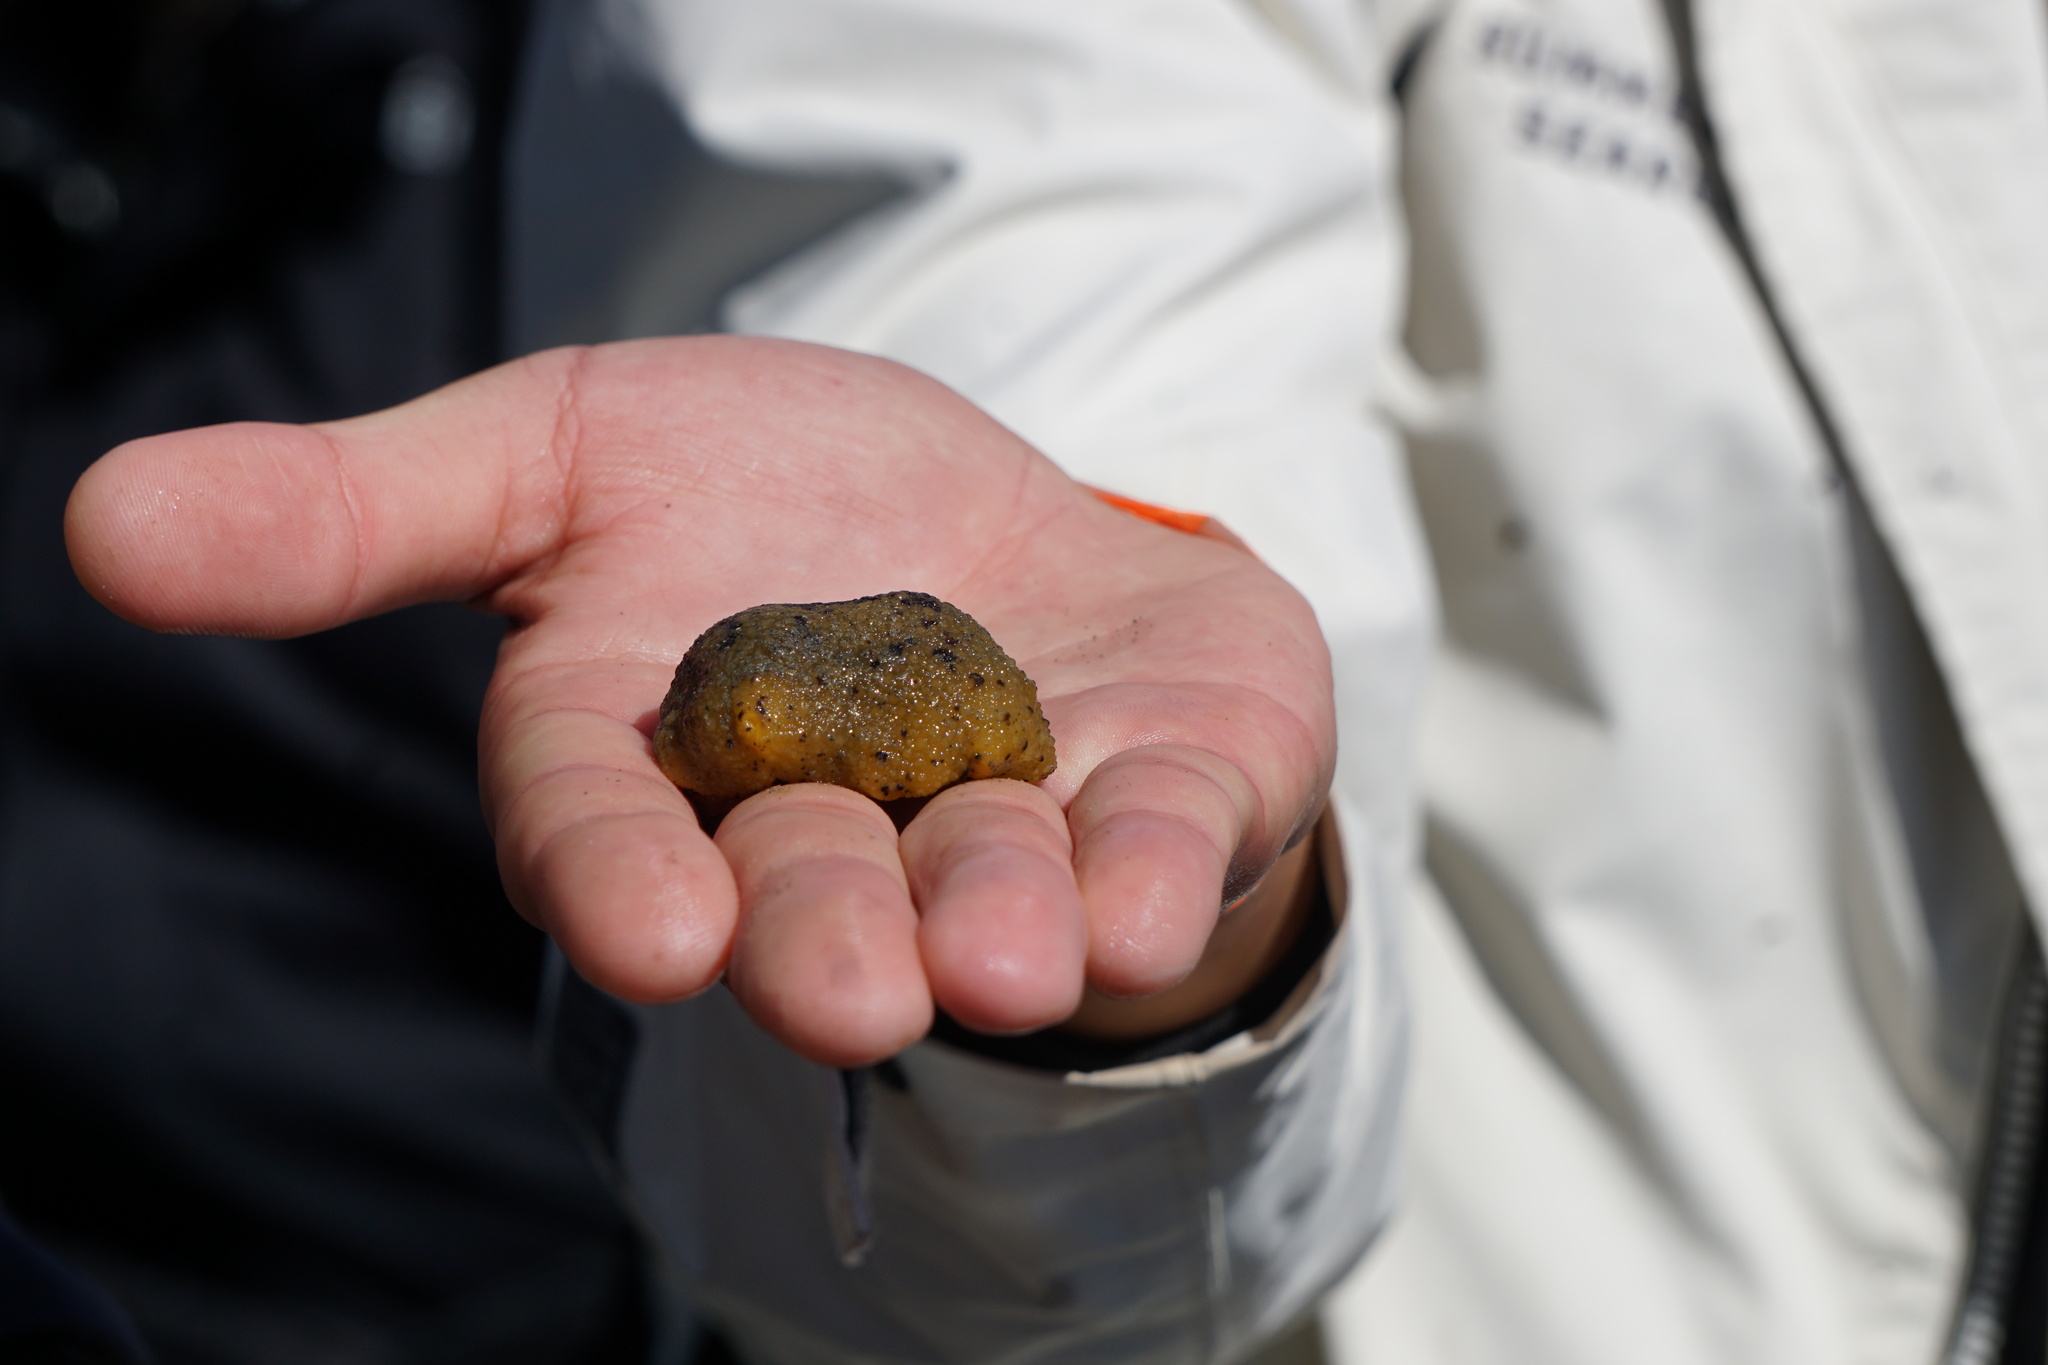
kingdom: Animalia
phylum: Mollusca
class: Gastropoda
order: Nudibranchia
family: Dorididae
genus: Doris
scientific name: Doris montereyensis
